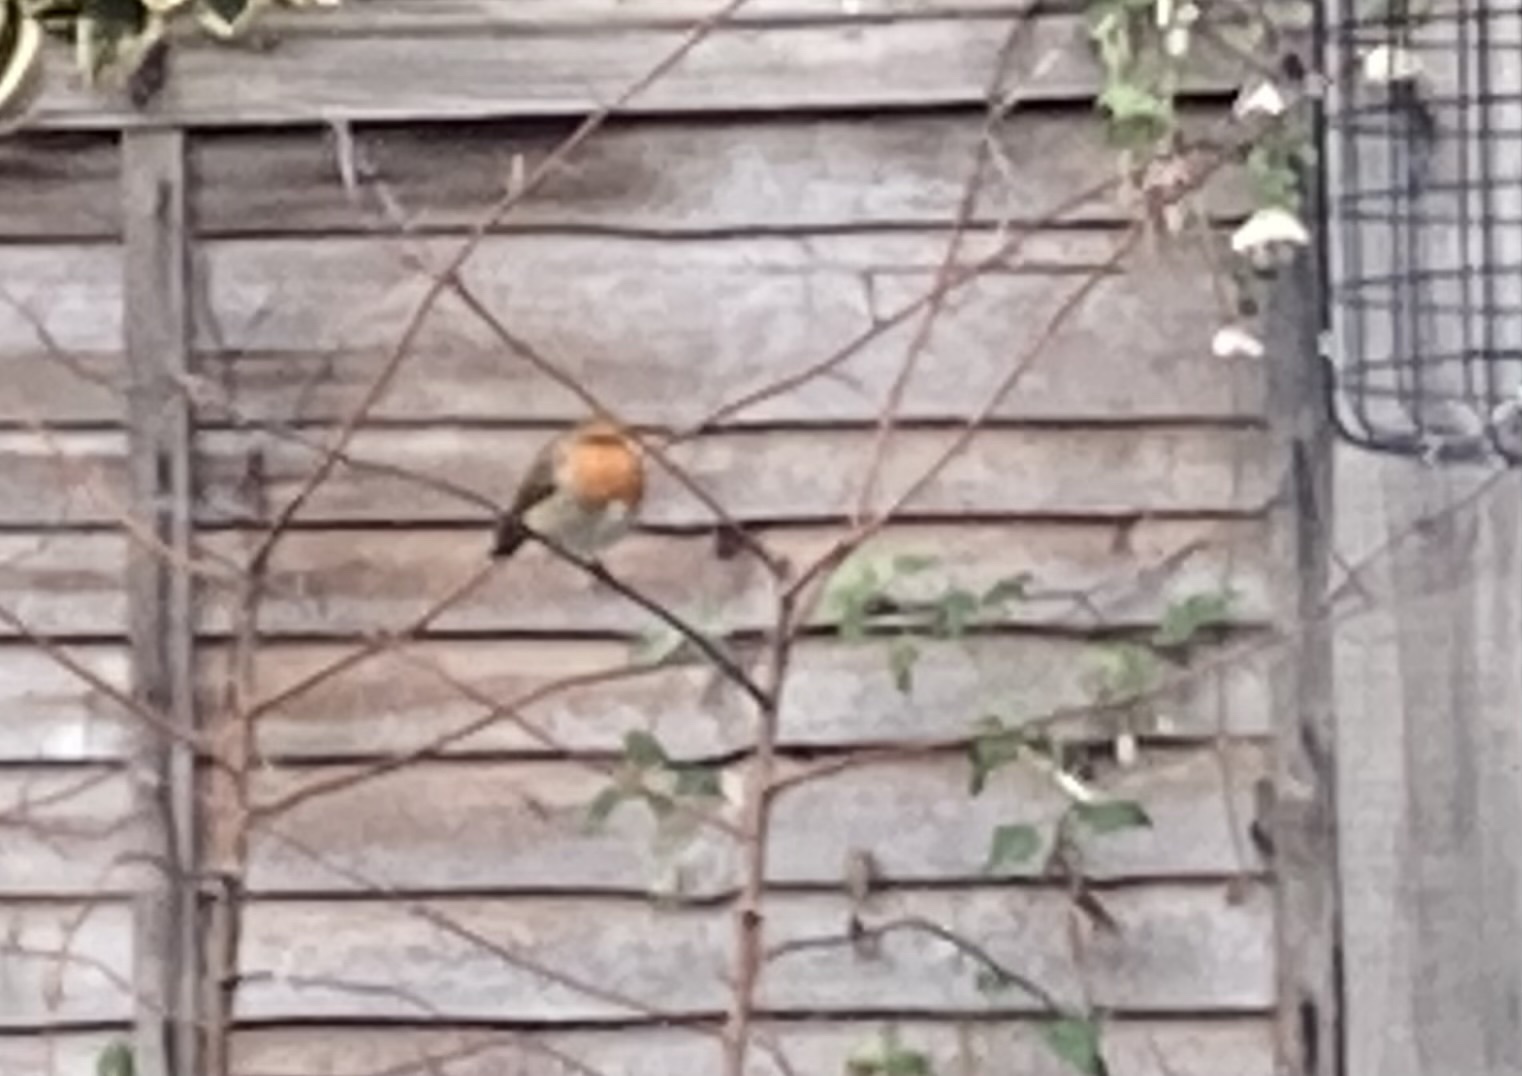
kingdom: Animalia
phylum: Chordata
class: Aves
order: Passeriformes
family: Muscicapidae
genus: Erithacus
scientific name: Erithacus rubecula
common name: European robin
